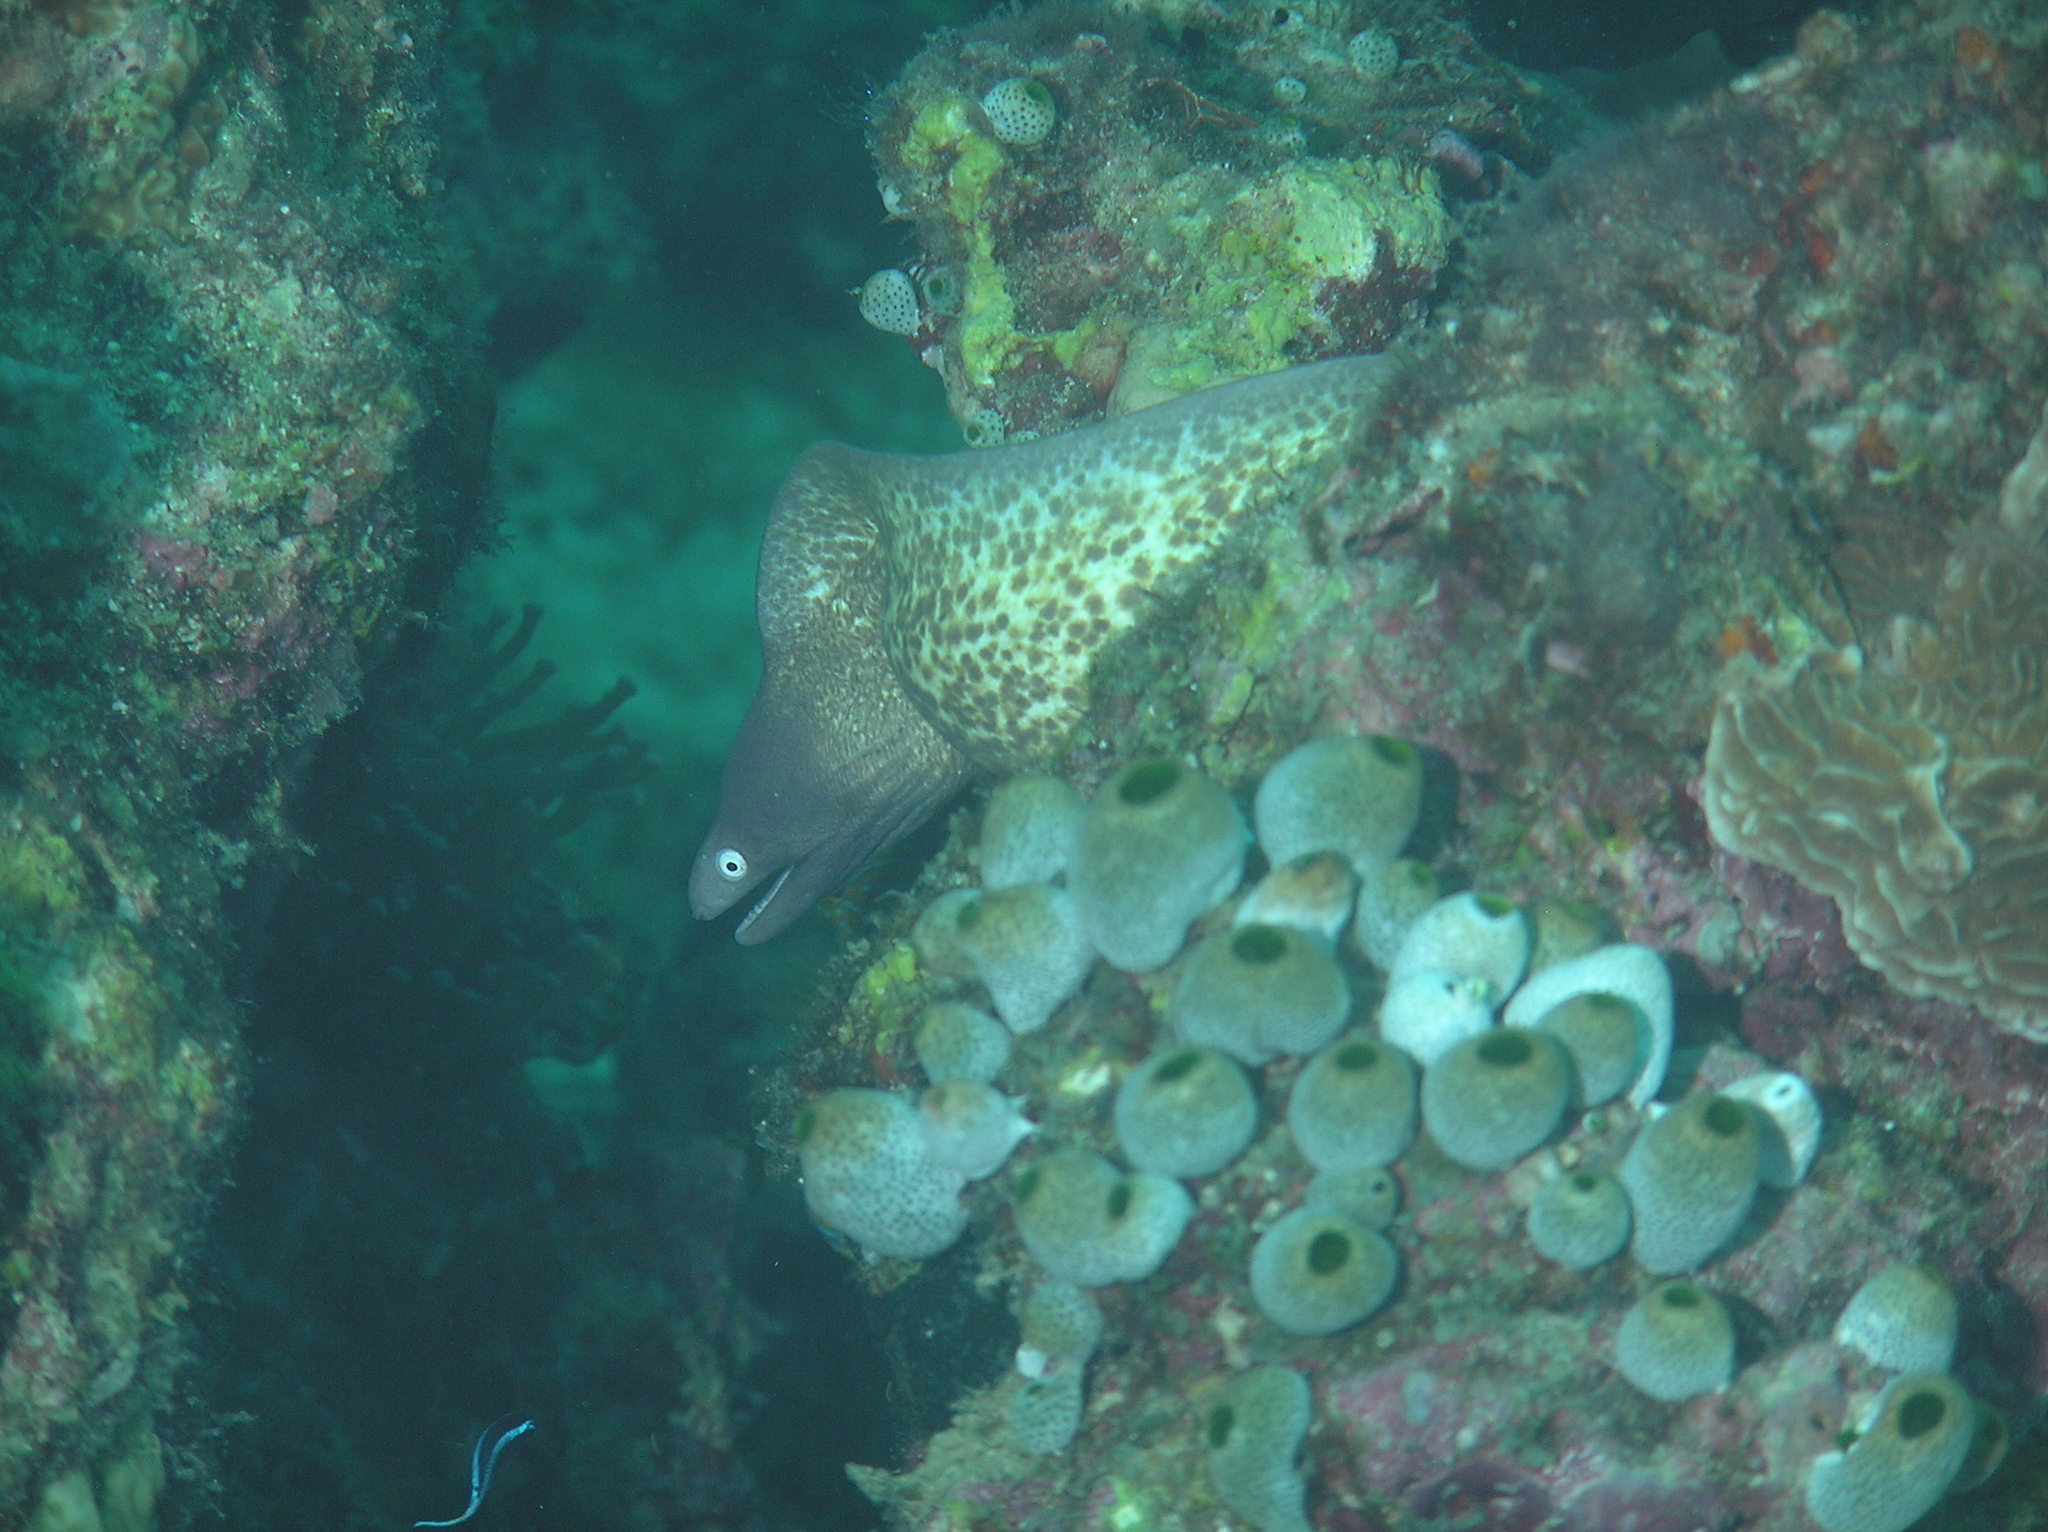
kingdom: Animalia
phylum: Chordata
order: Anguilliformes
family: Muraenidae
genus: Gymnothorax
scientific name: Gymnothorax thyrsoideus
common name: Greyface moray
